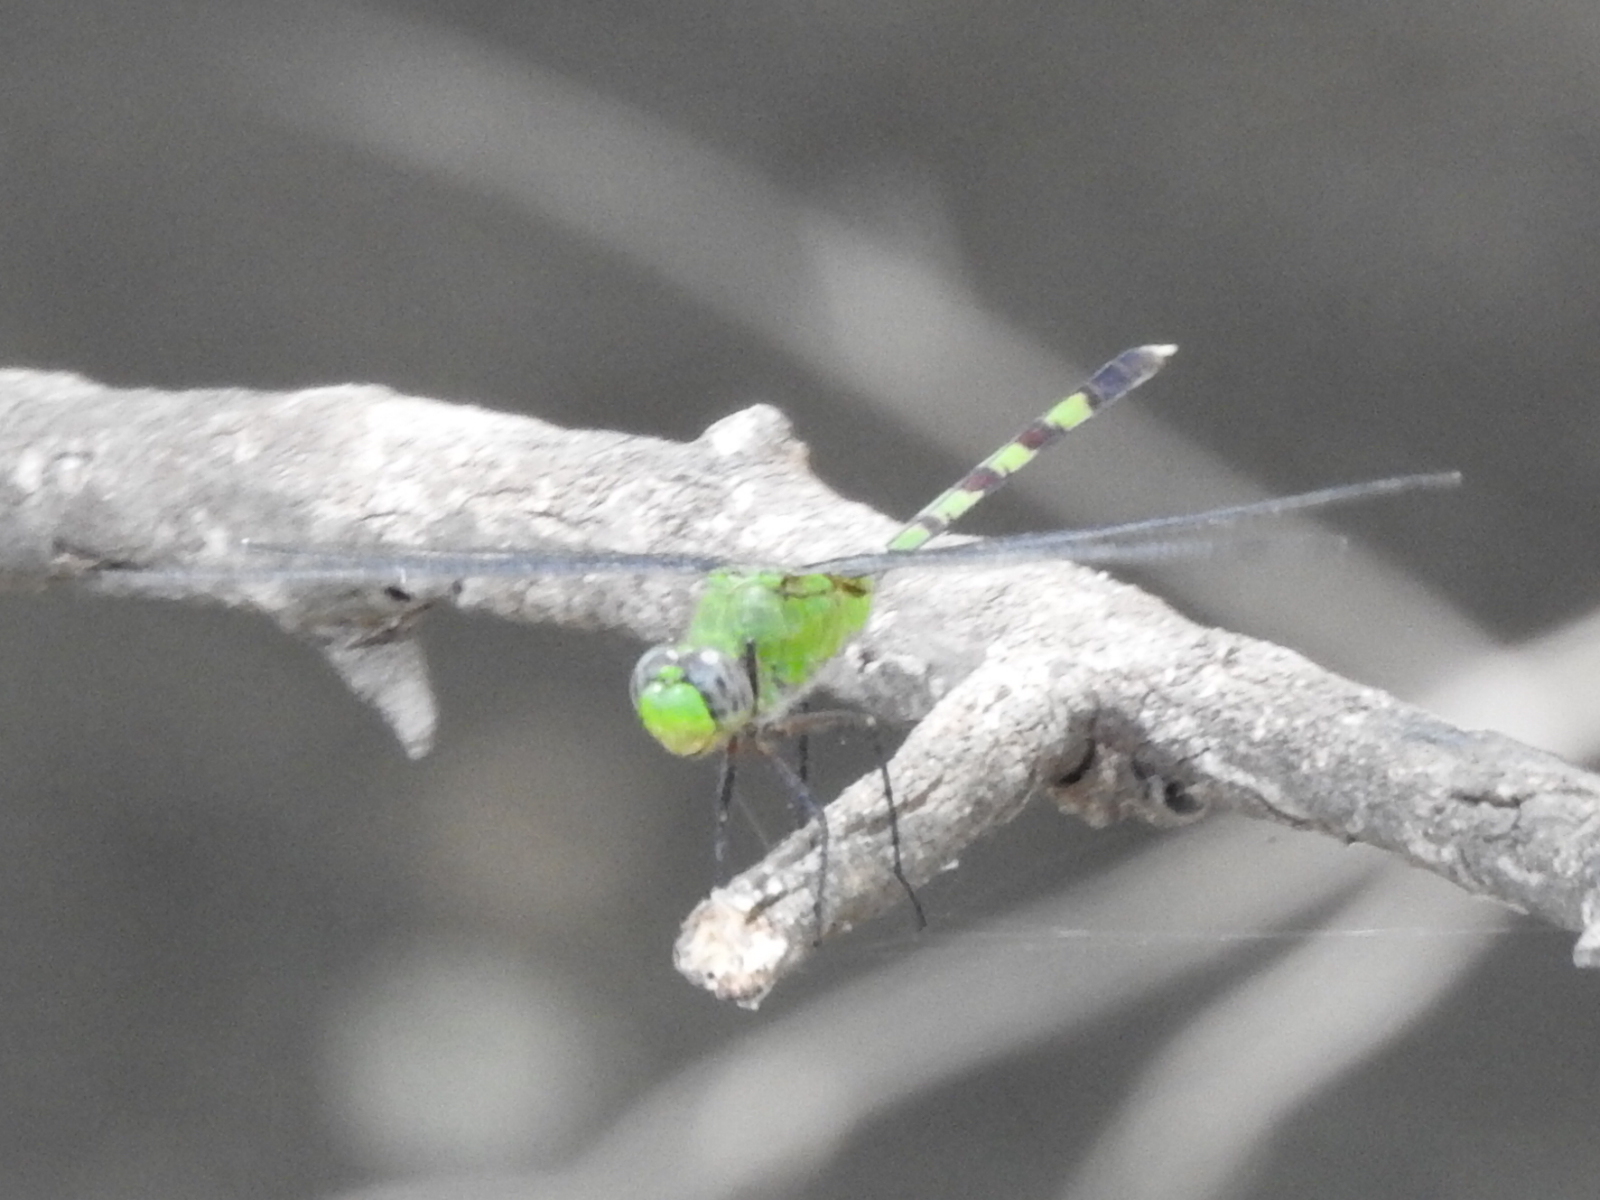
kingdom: Animalia
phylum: Arthropoda
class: Insecta
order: Odonata
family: Libellulidae
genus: Erythemis
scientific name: Erythemis vesiculosa
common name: Great pondhawk
